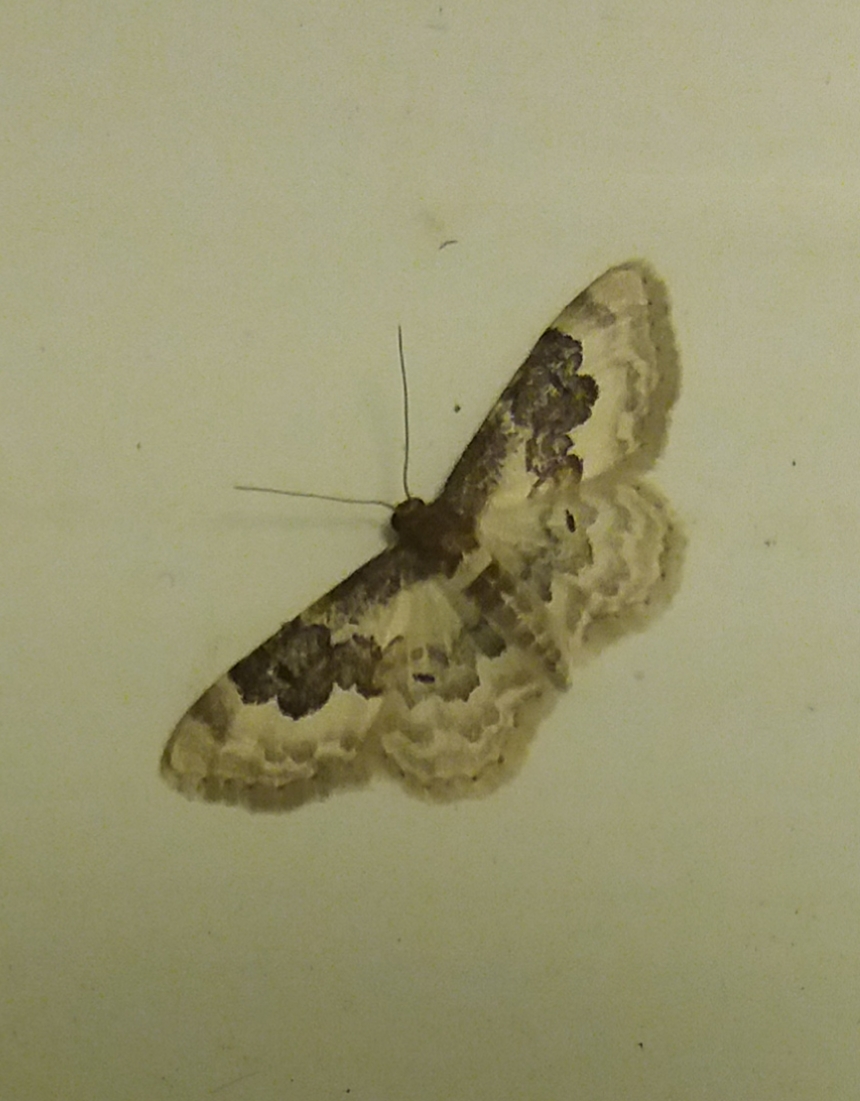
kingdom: Animalia
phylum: Arthropoda
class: Insecta
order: Lepidoptera
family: Geometridae
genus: Idaea
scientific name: Idaea rusticata
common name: Least carpet
